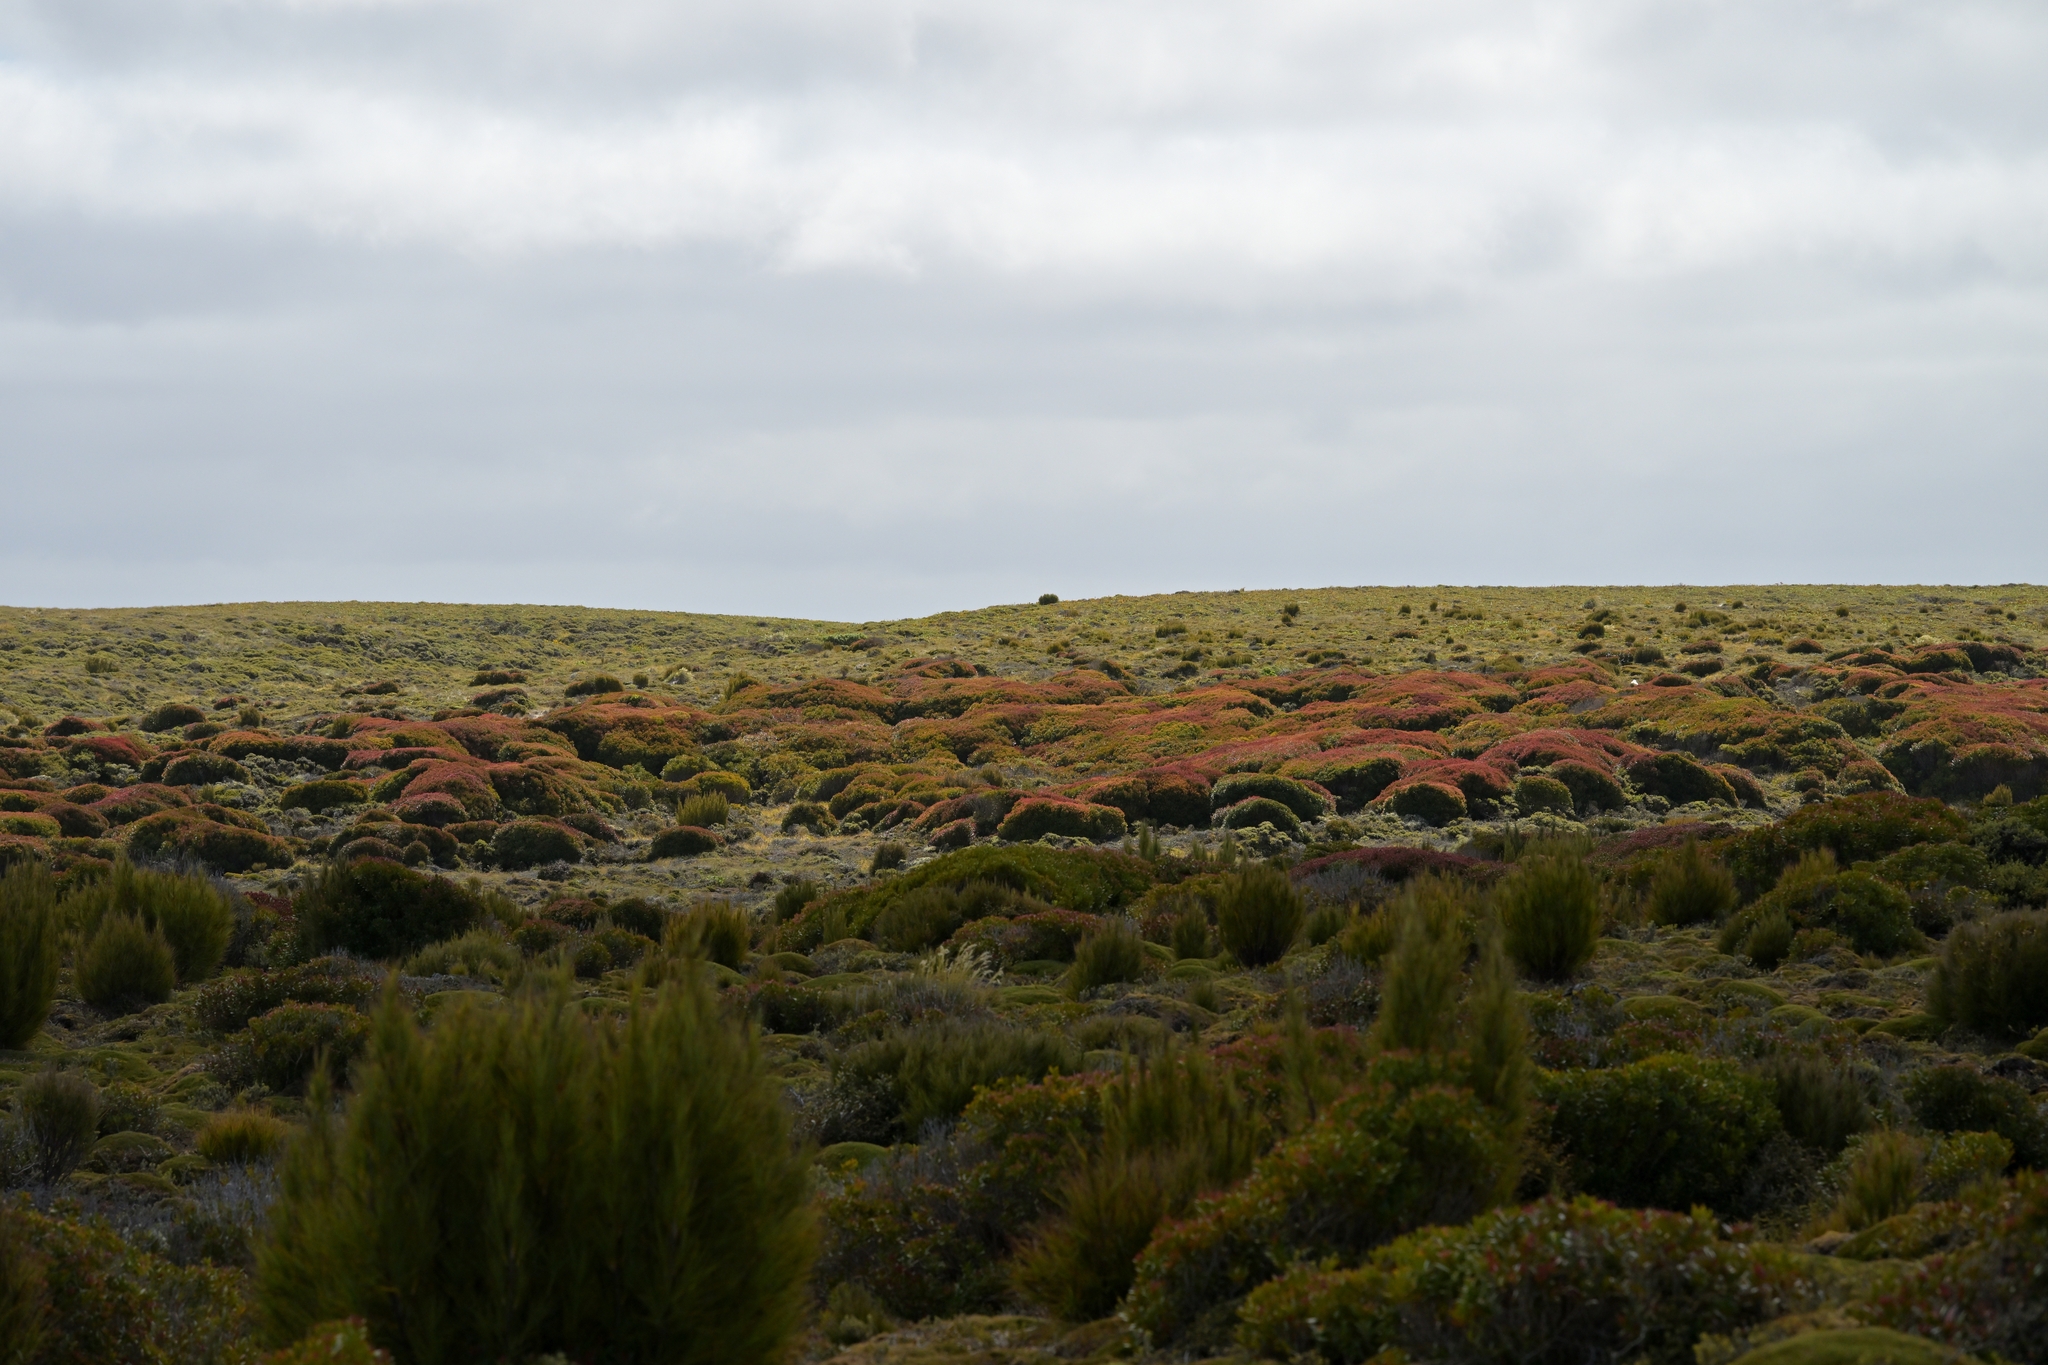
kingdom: Plantae
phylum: Tracheophyta
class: Magnoliopsida
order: Myrtales
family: Myrtaceae
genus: Metrosideros
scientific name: Metrosideros umbellata
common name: Southern rata
